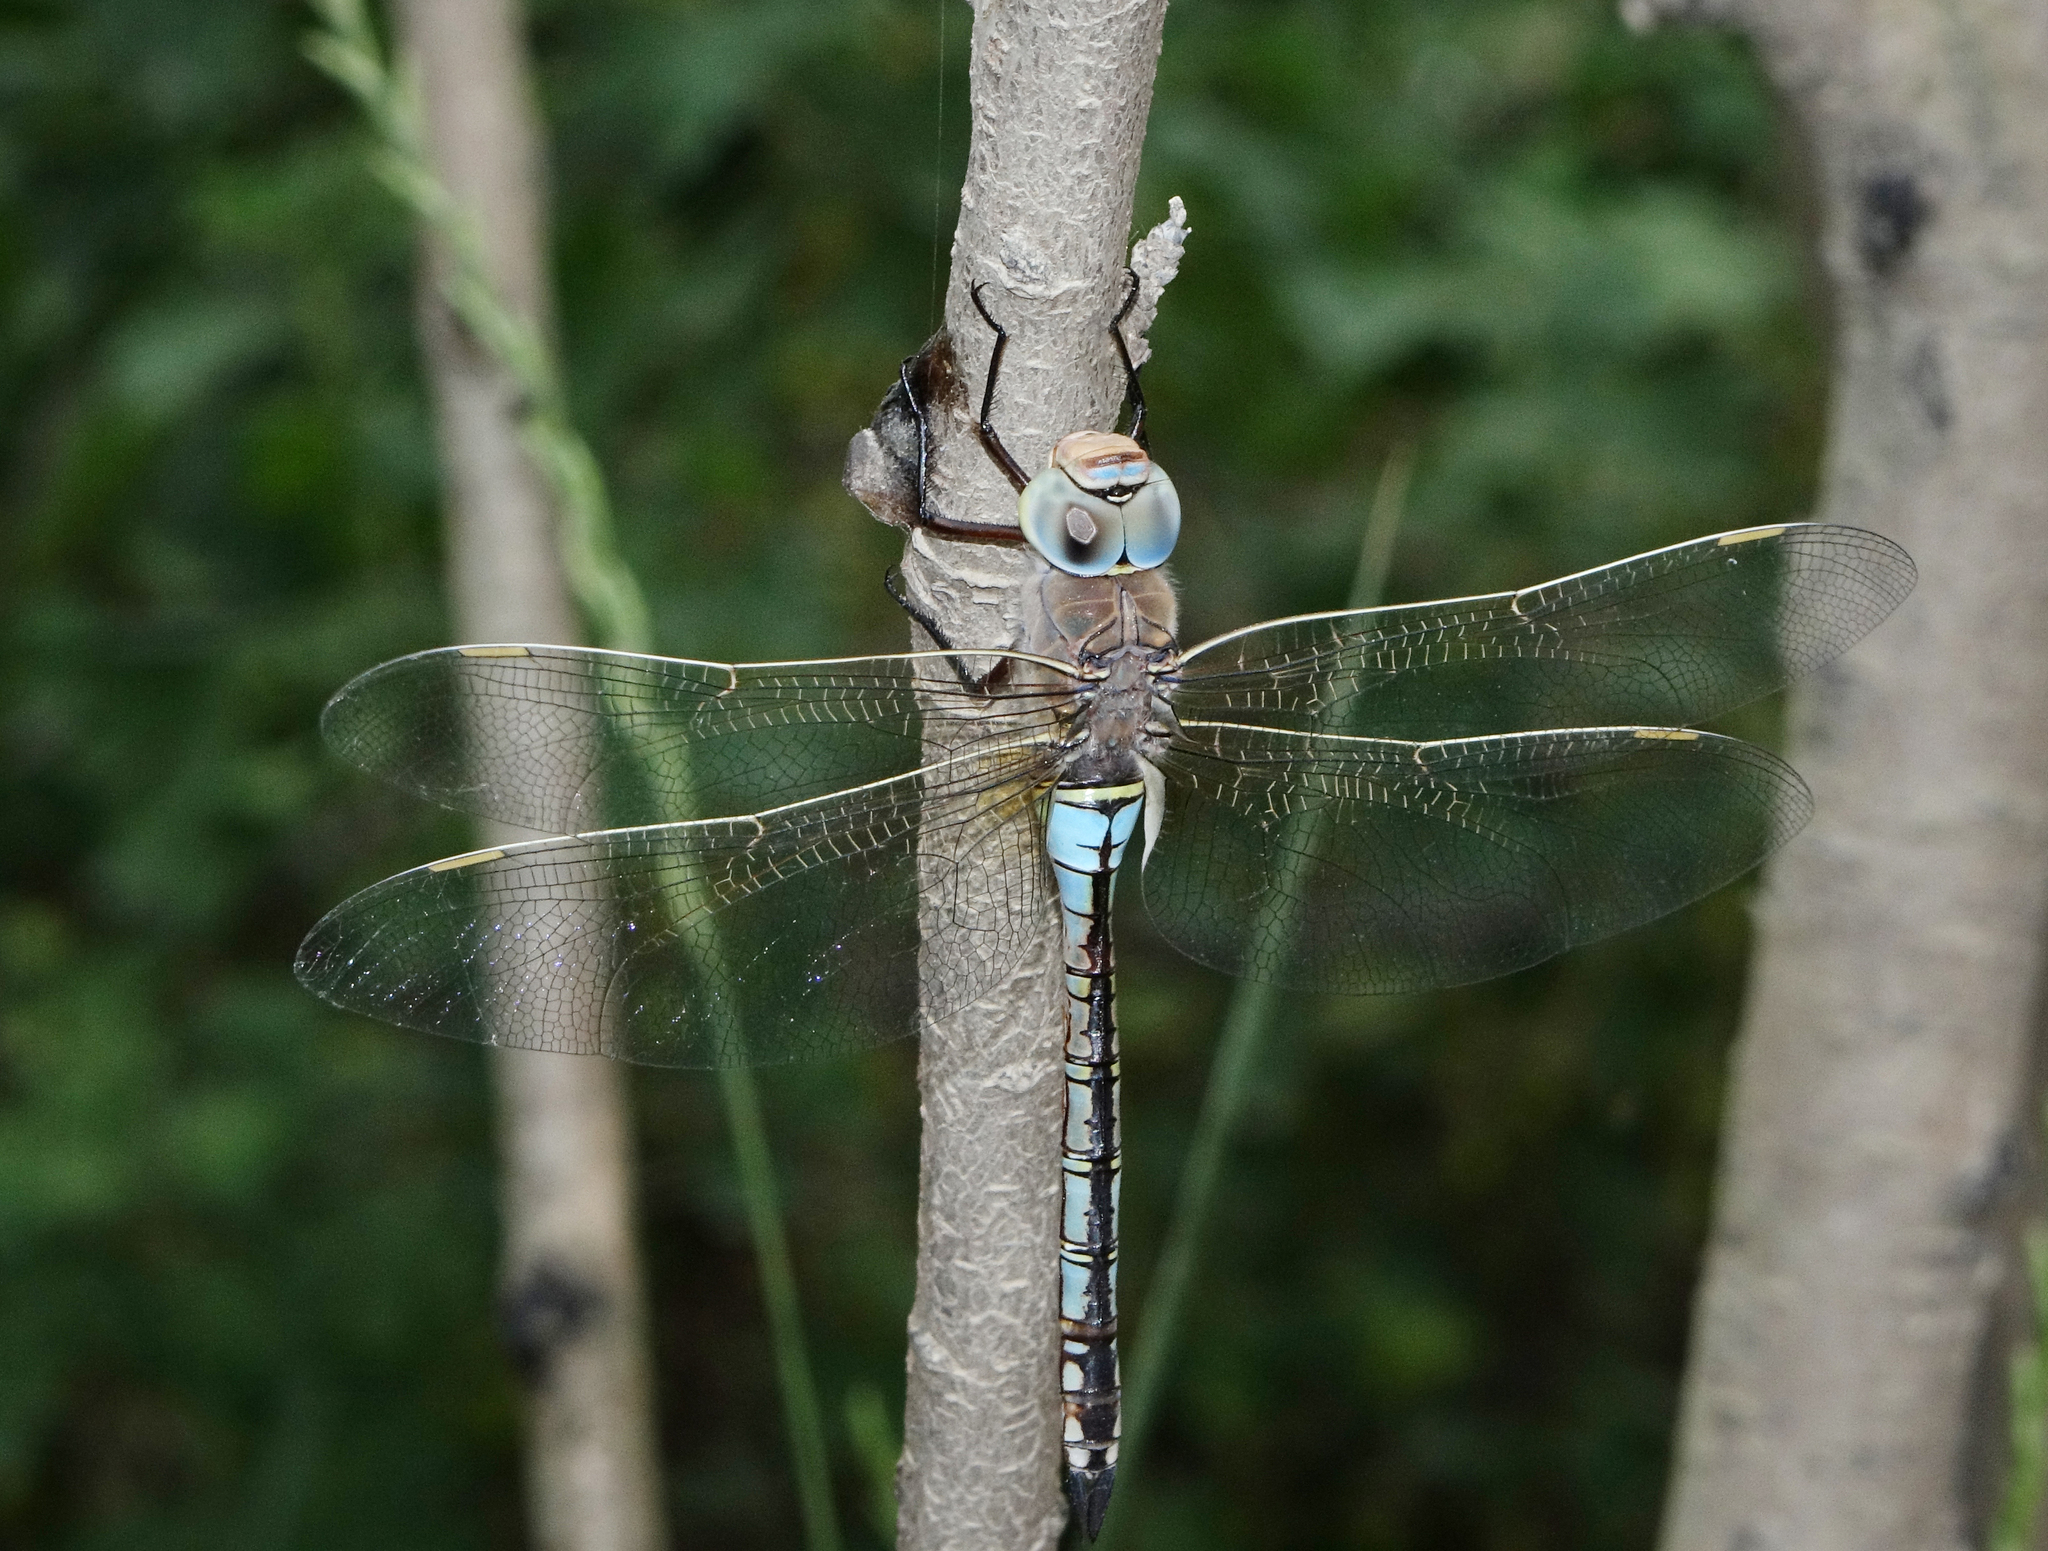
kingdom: Animalia
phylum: Arthropoda
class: Insecta
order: Odonata
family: Aeshnidae
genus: Anax
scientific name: Anax parthenope
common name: Lesser emperor
